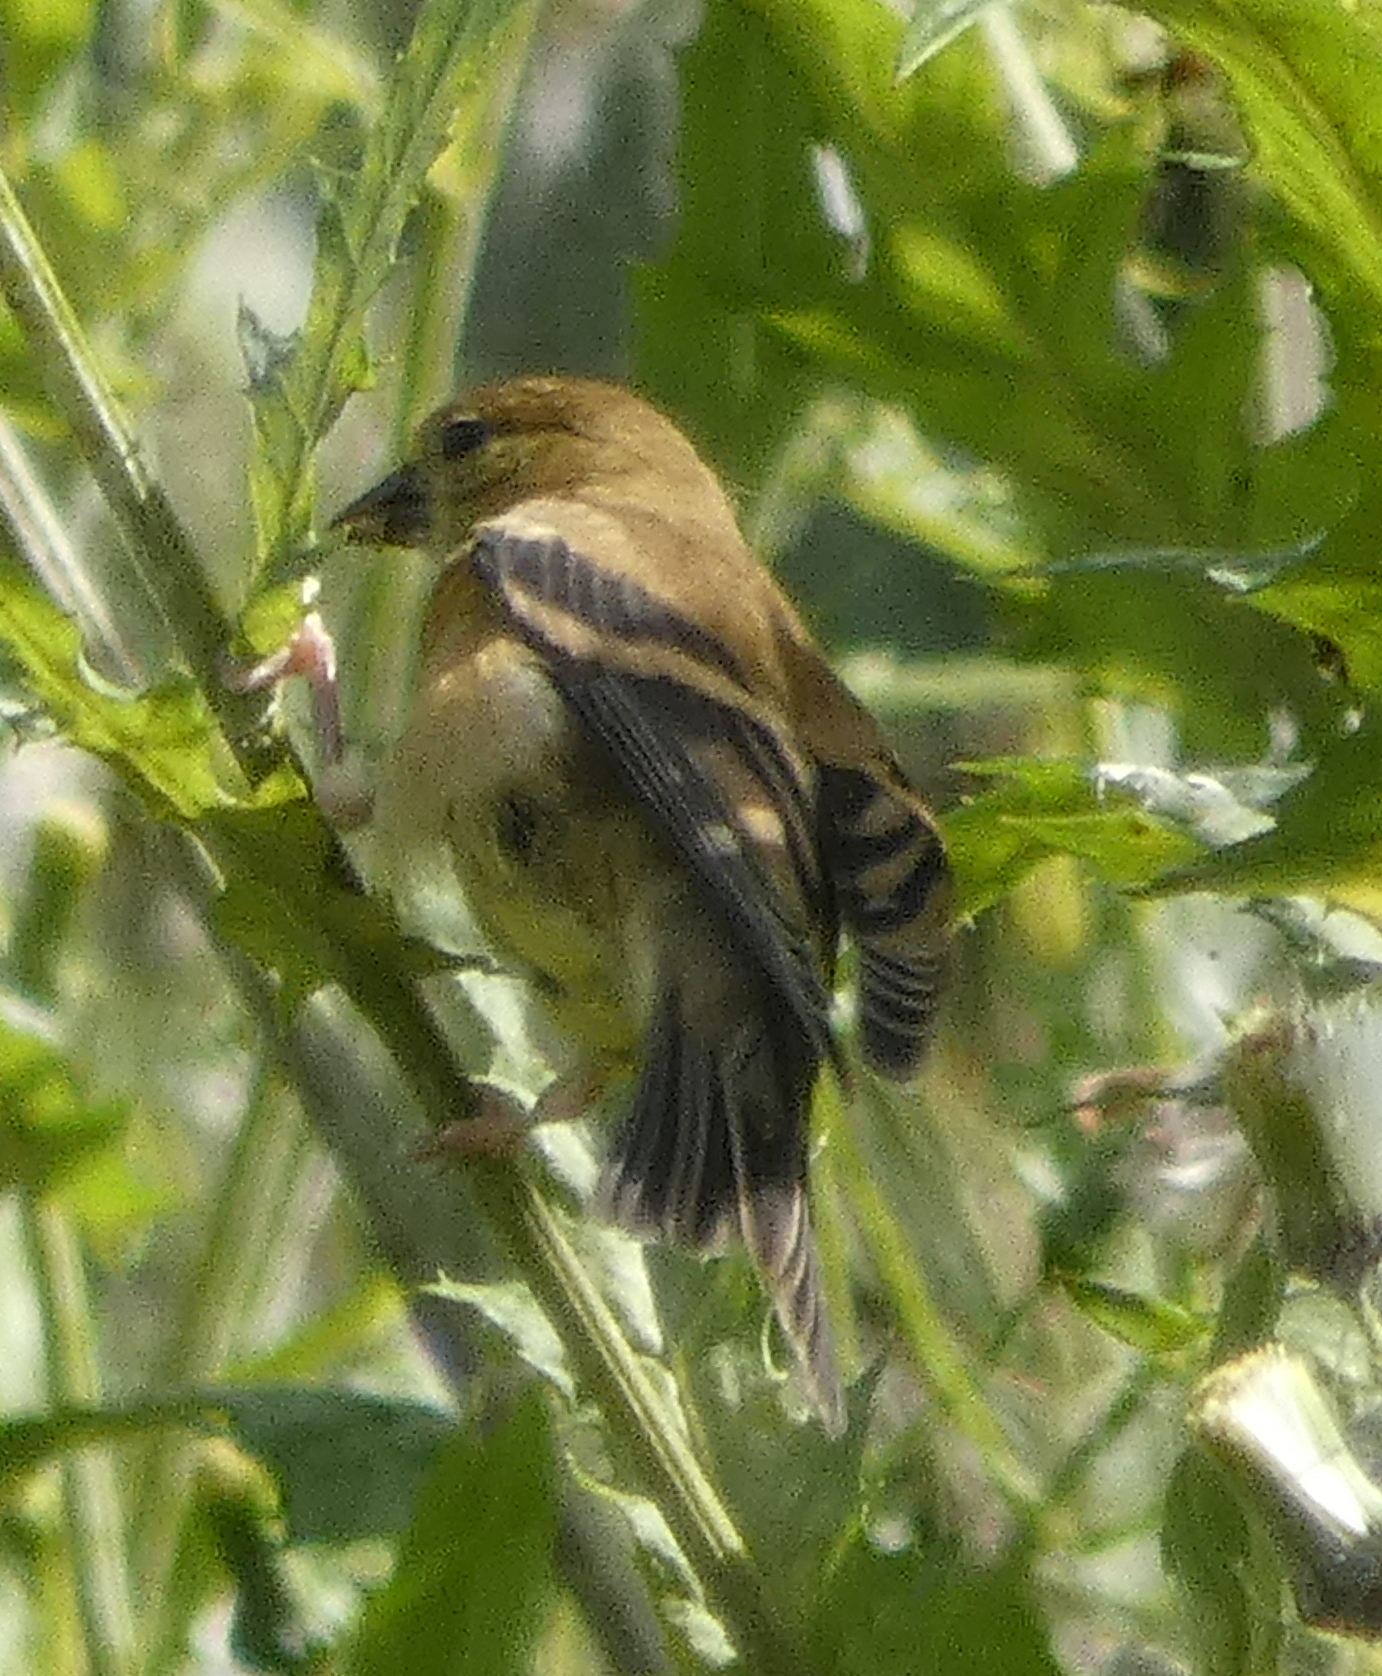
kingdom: Animalia
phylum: Chordata
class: Aves
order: Passeriformes
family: Fringillidae
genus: Spinus
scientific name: Spinus tristis
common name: American goldfinch
